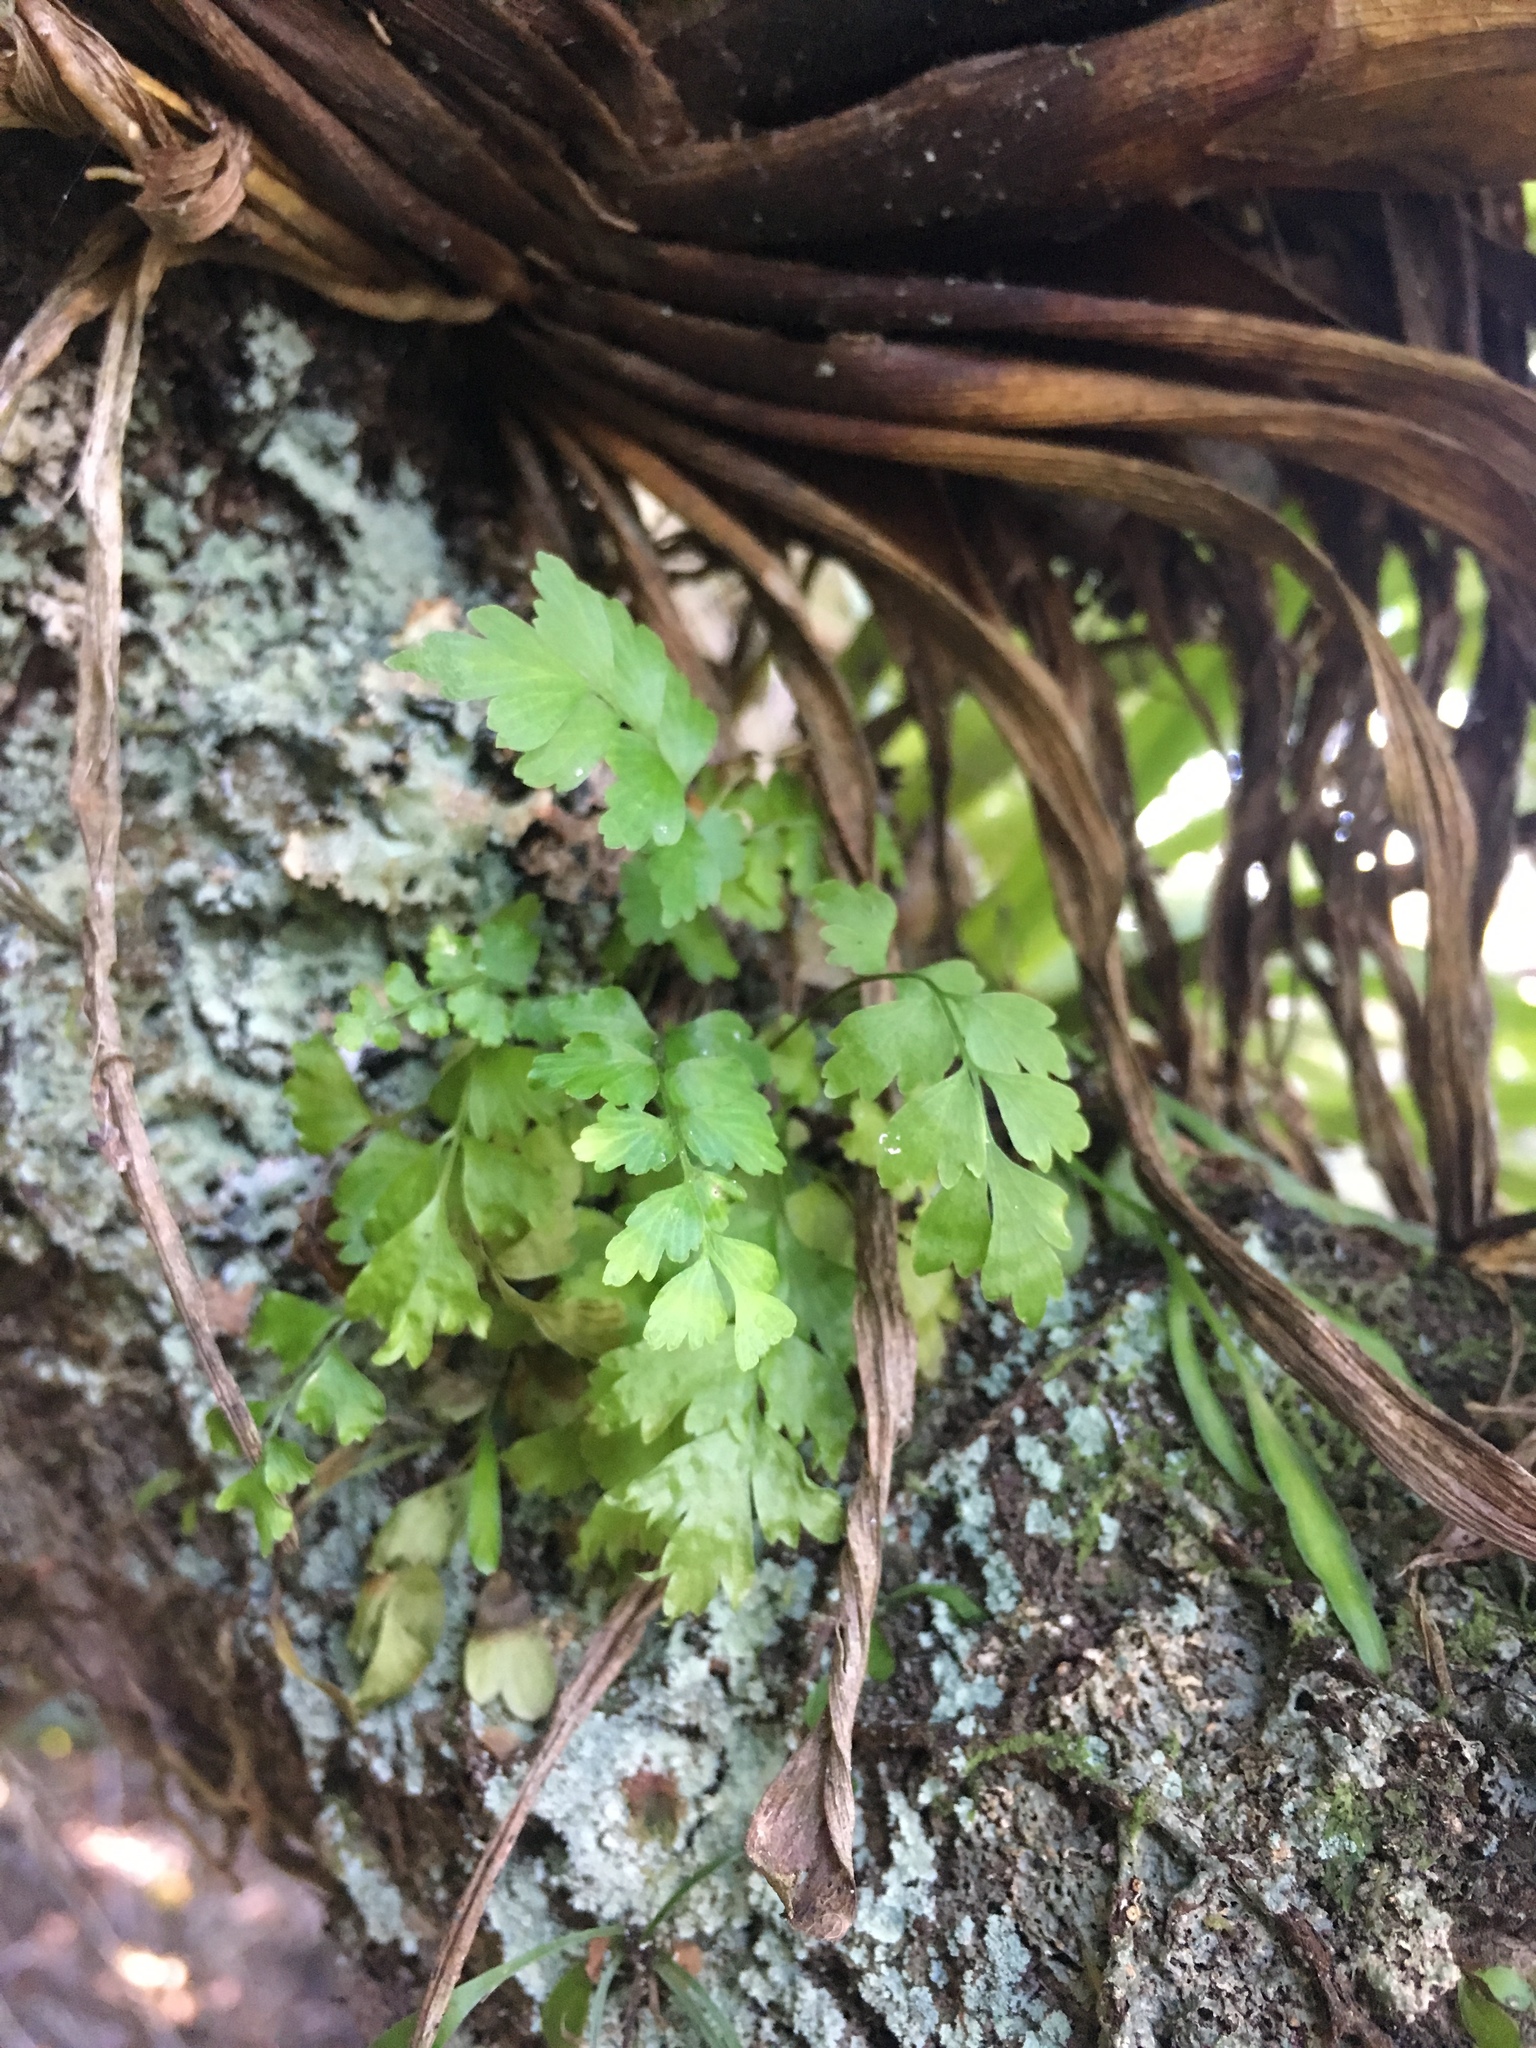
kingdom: Plantae
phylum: Tracheophyta
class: Polypodiopsida
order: Polypodiales
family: Aspleniaceae
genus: Asplenium
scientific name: Asplenium polyodon
